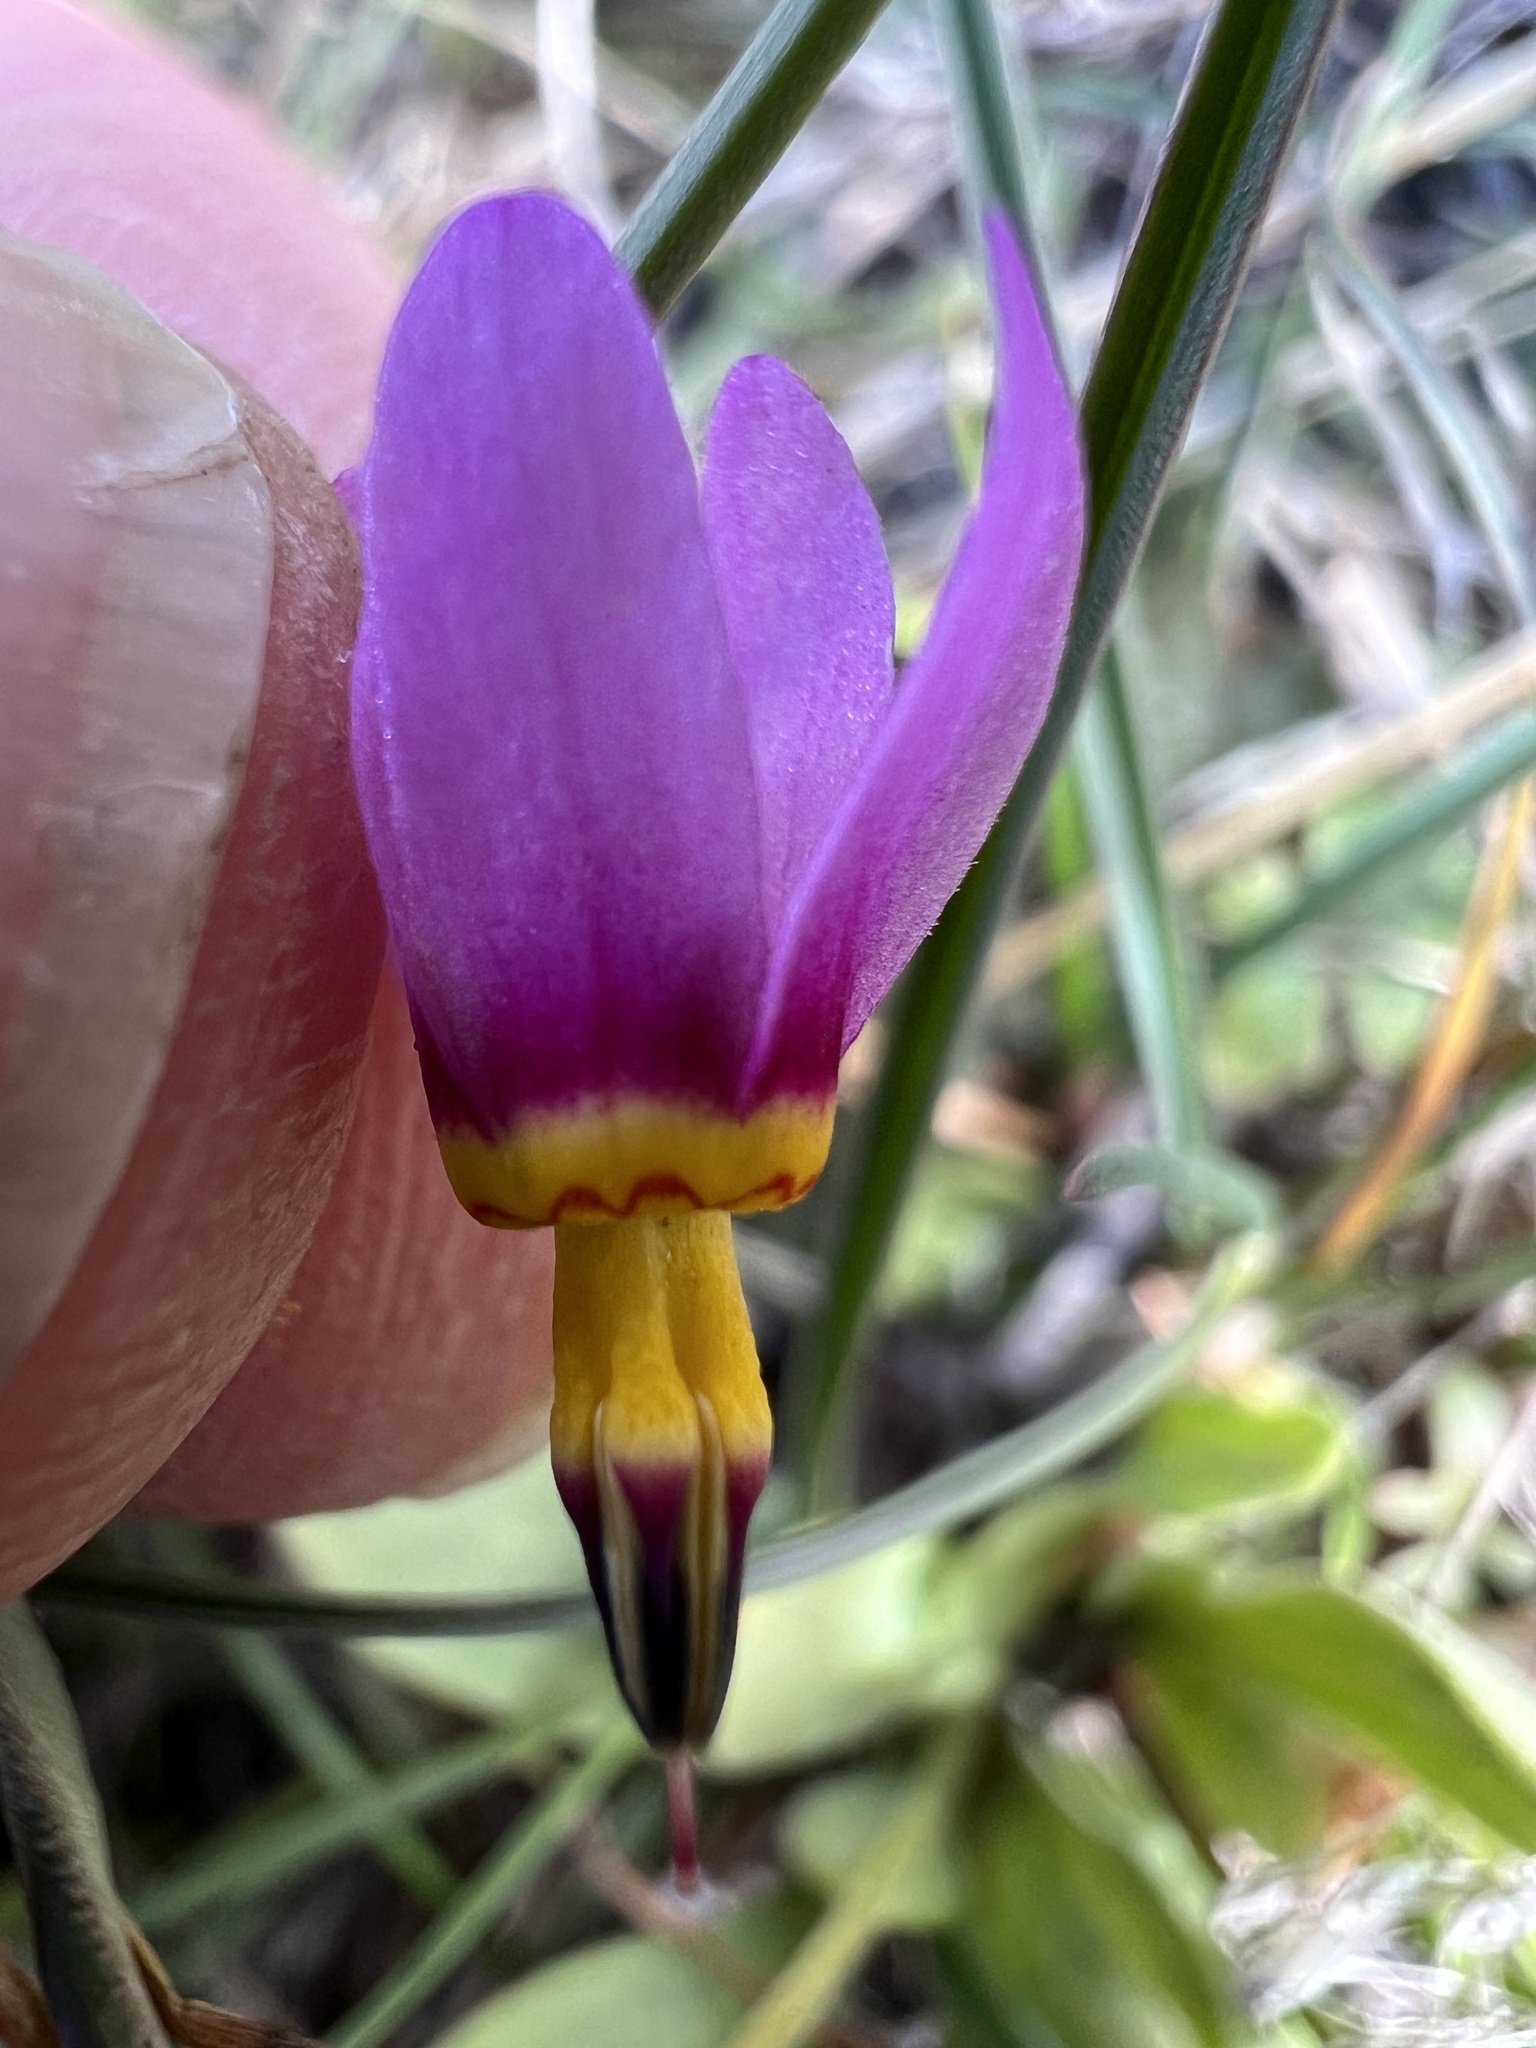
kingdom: Plantae
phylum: Tracheophyta
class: Magnoliopsida
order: Ericales
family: Primulaceae
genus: Dodecatheon
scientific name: Dodecatheon pulchellum
